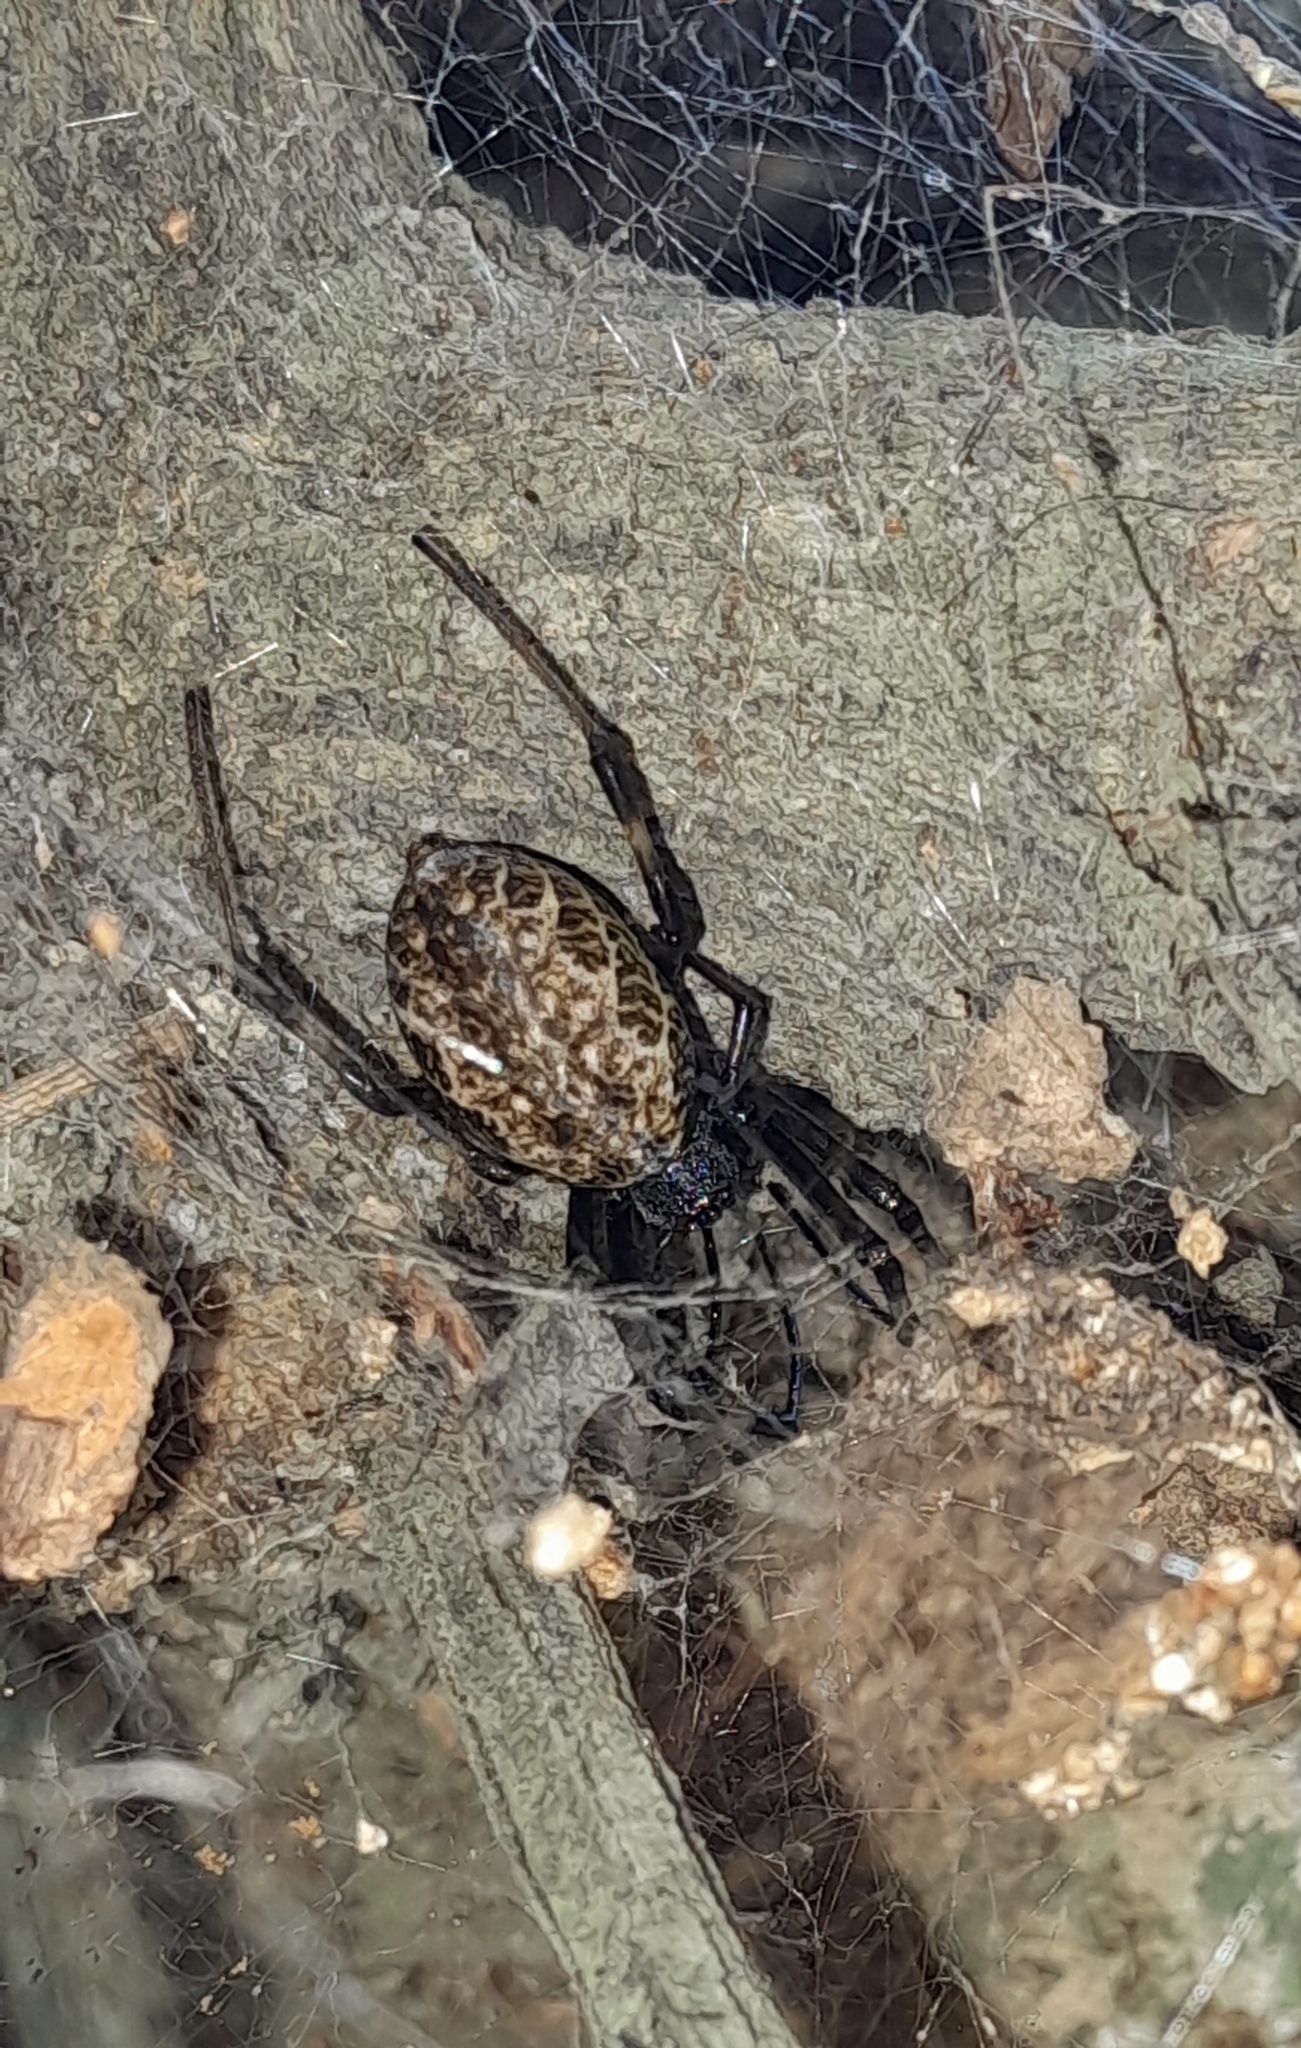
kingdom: Animalia
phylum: Arthropoda
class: Arachnida
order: Araneae
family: Araneidae
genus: Nephilengys
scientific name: Nephilengys malabarensis
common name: Asian hermit spider
